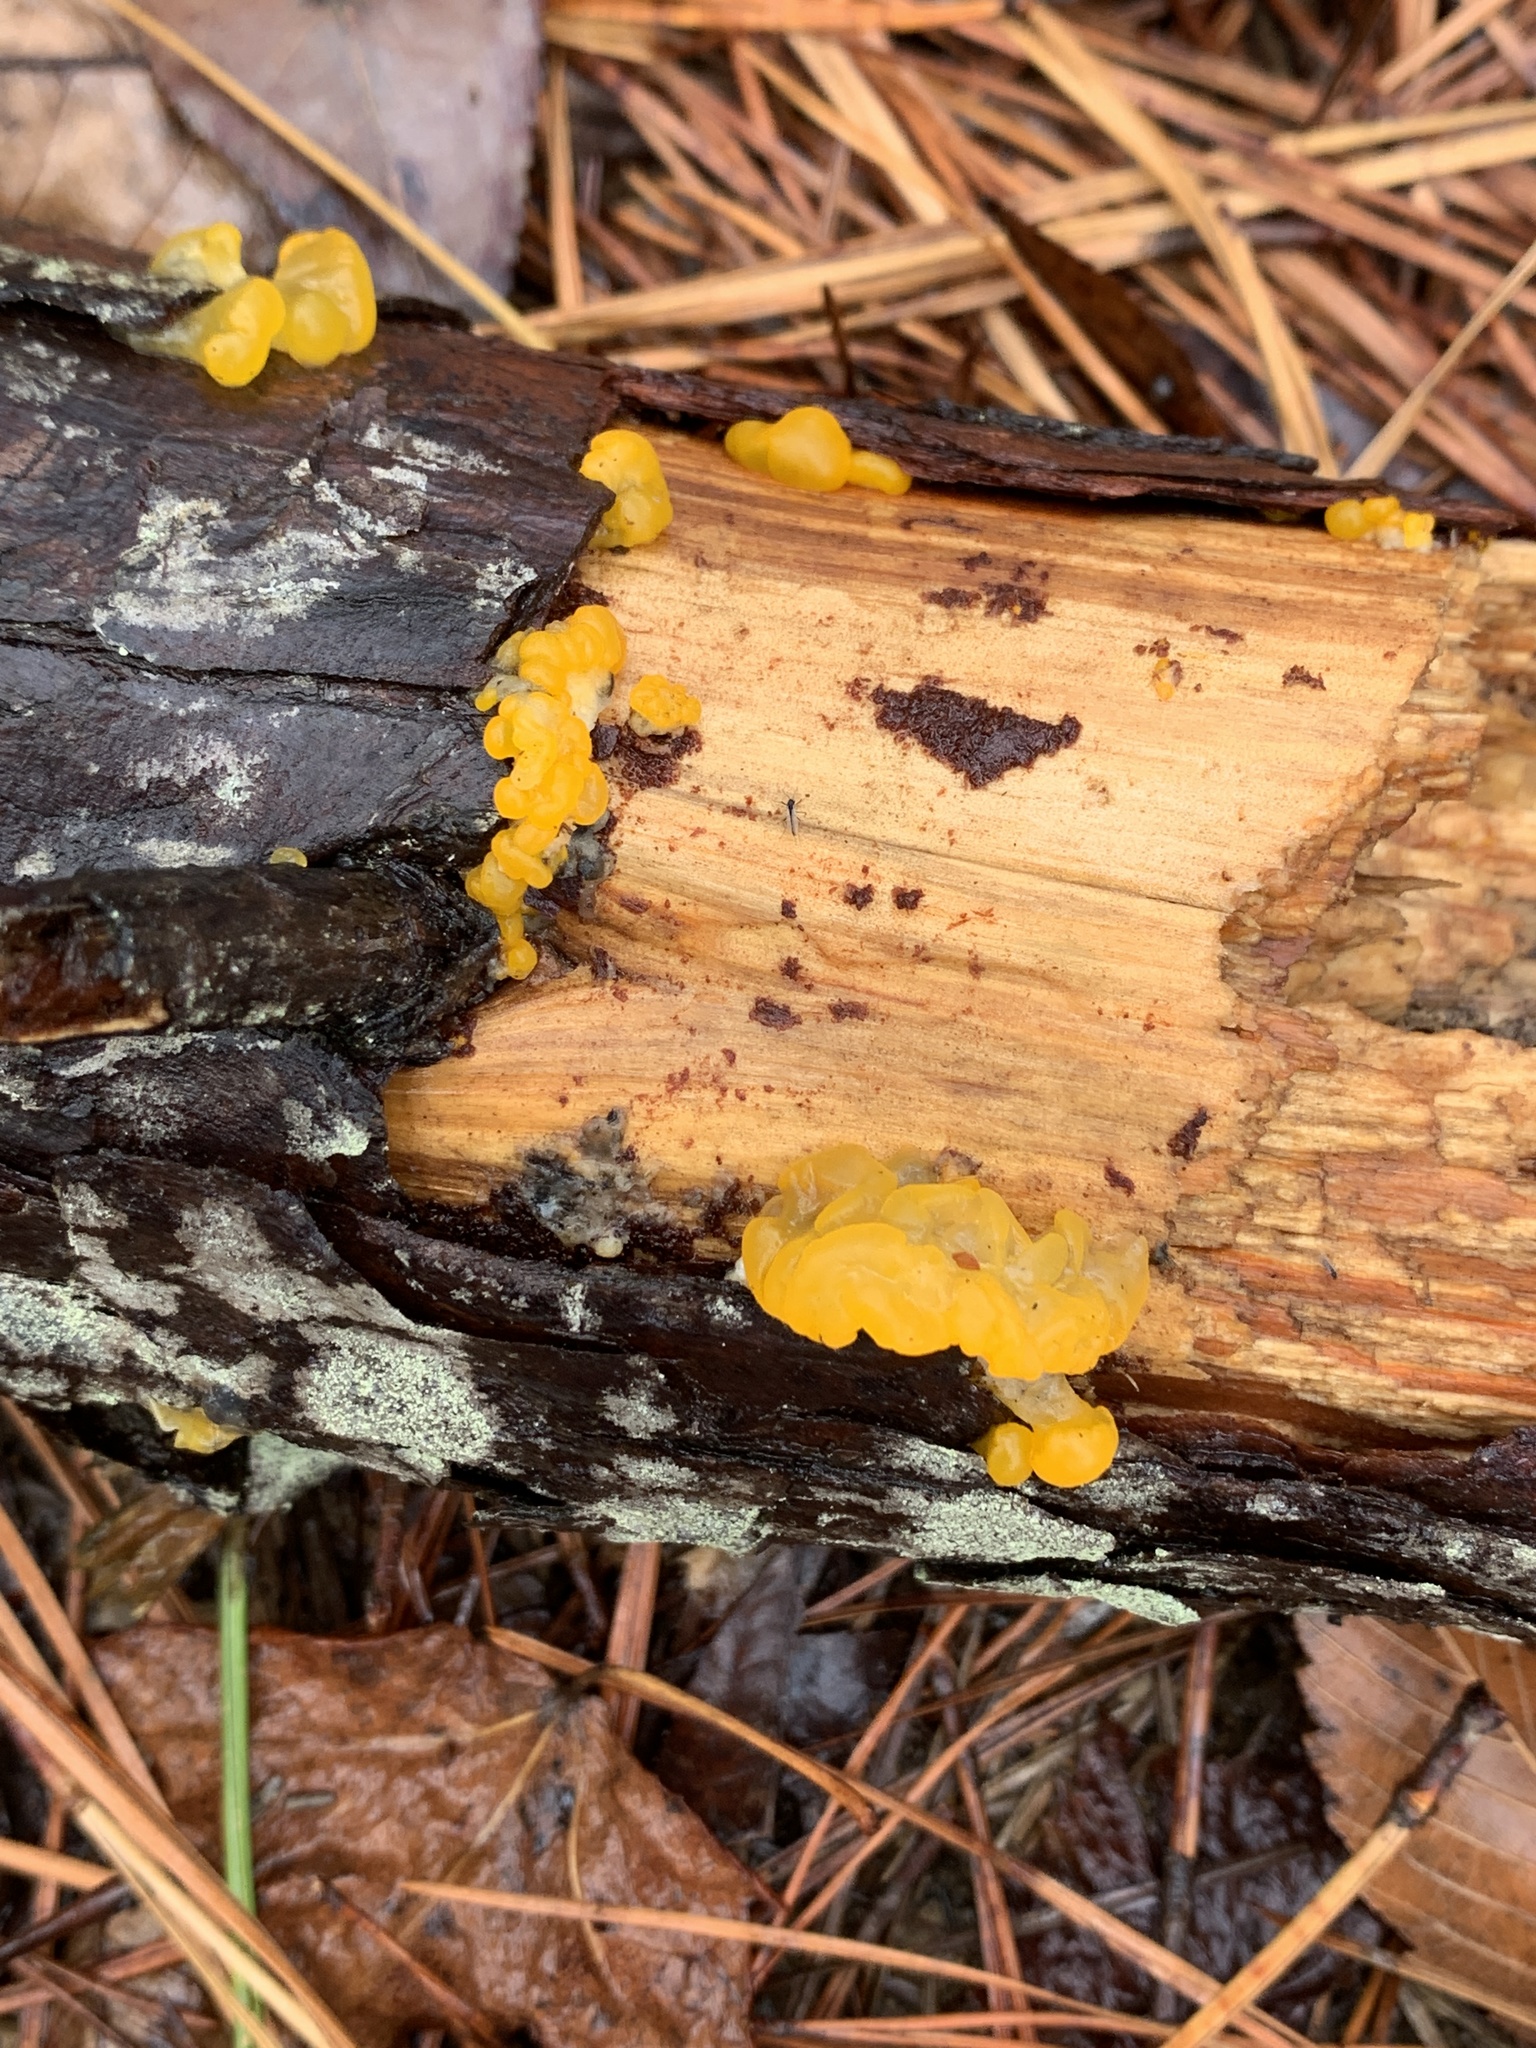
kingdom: Fungi
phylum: Basidiomycota
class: Dacrymycetes
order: Dacrymycetales
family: Dacrymycetaceae
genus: Dacrymyces
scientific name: Dacrymyces chrysospermus
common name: Orange jelly spot
